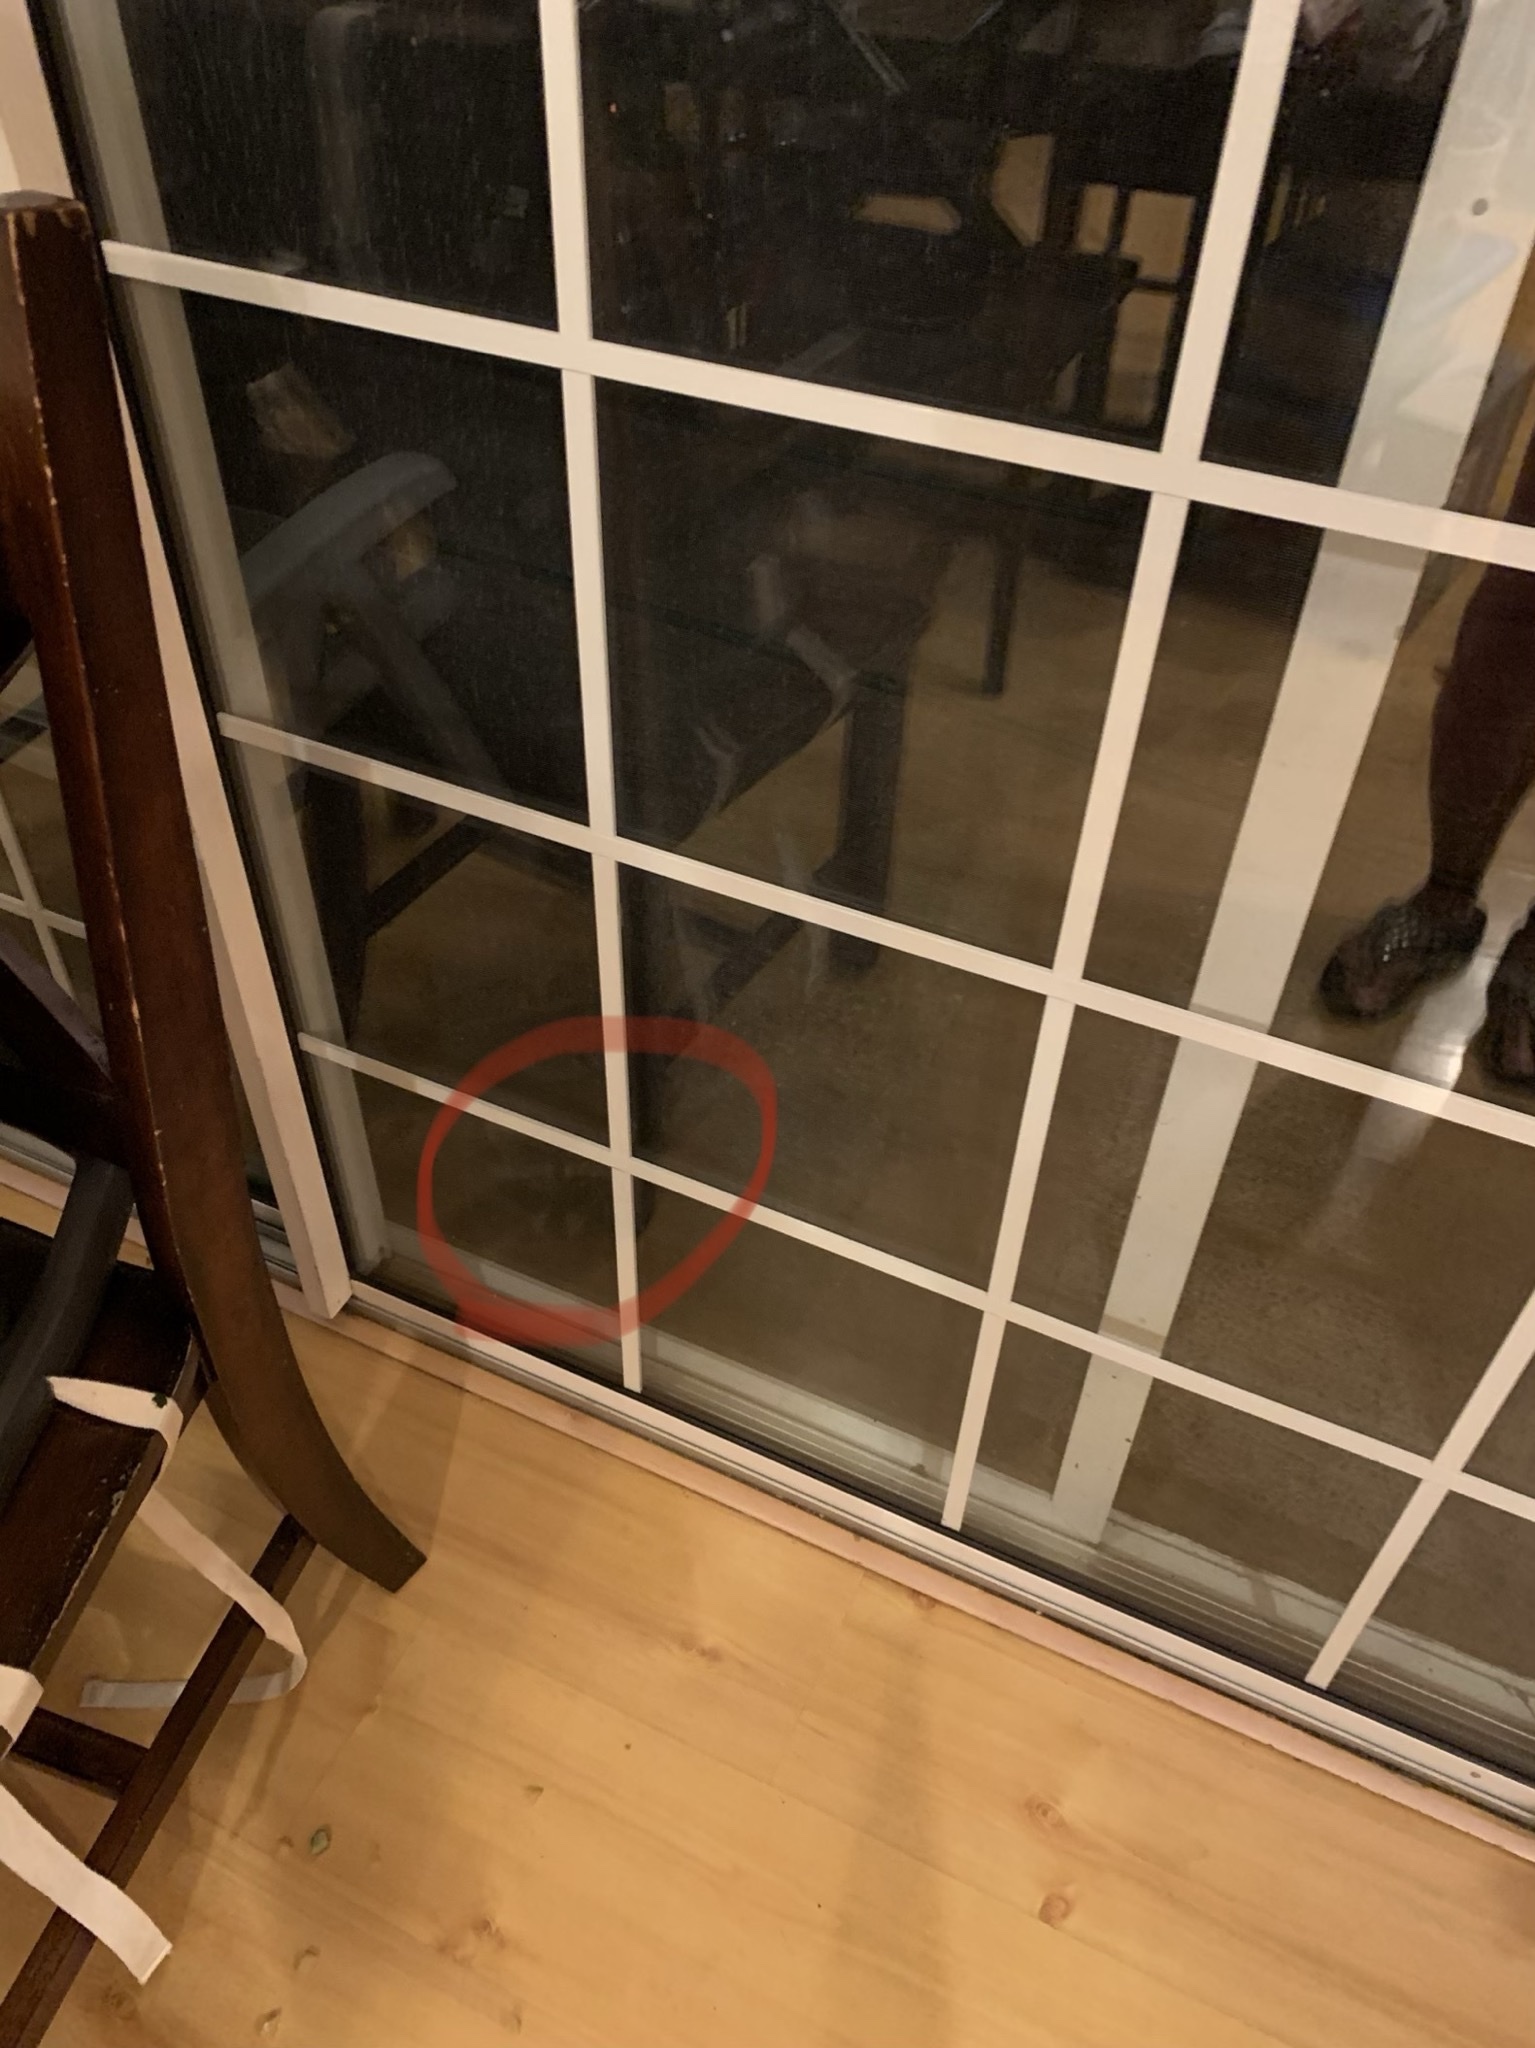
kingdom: Animalia
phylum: Chordata
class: Mammalia
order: Carnivora
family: Procyonidae
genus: Procyon
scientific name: Procyon lotor
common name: Raccoon
